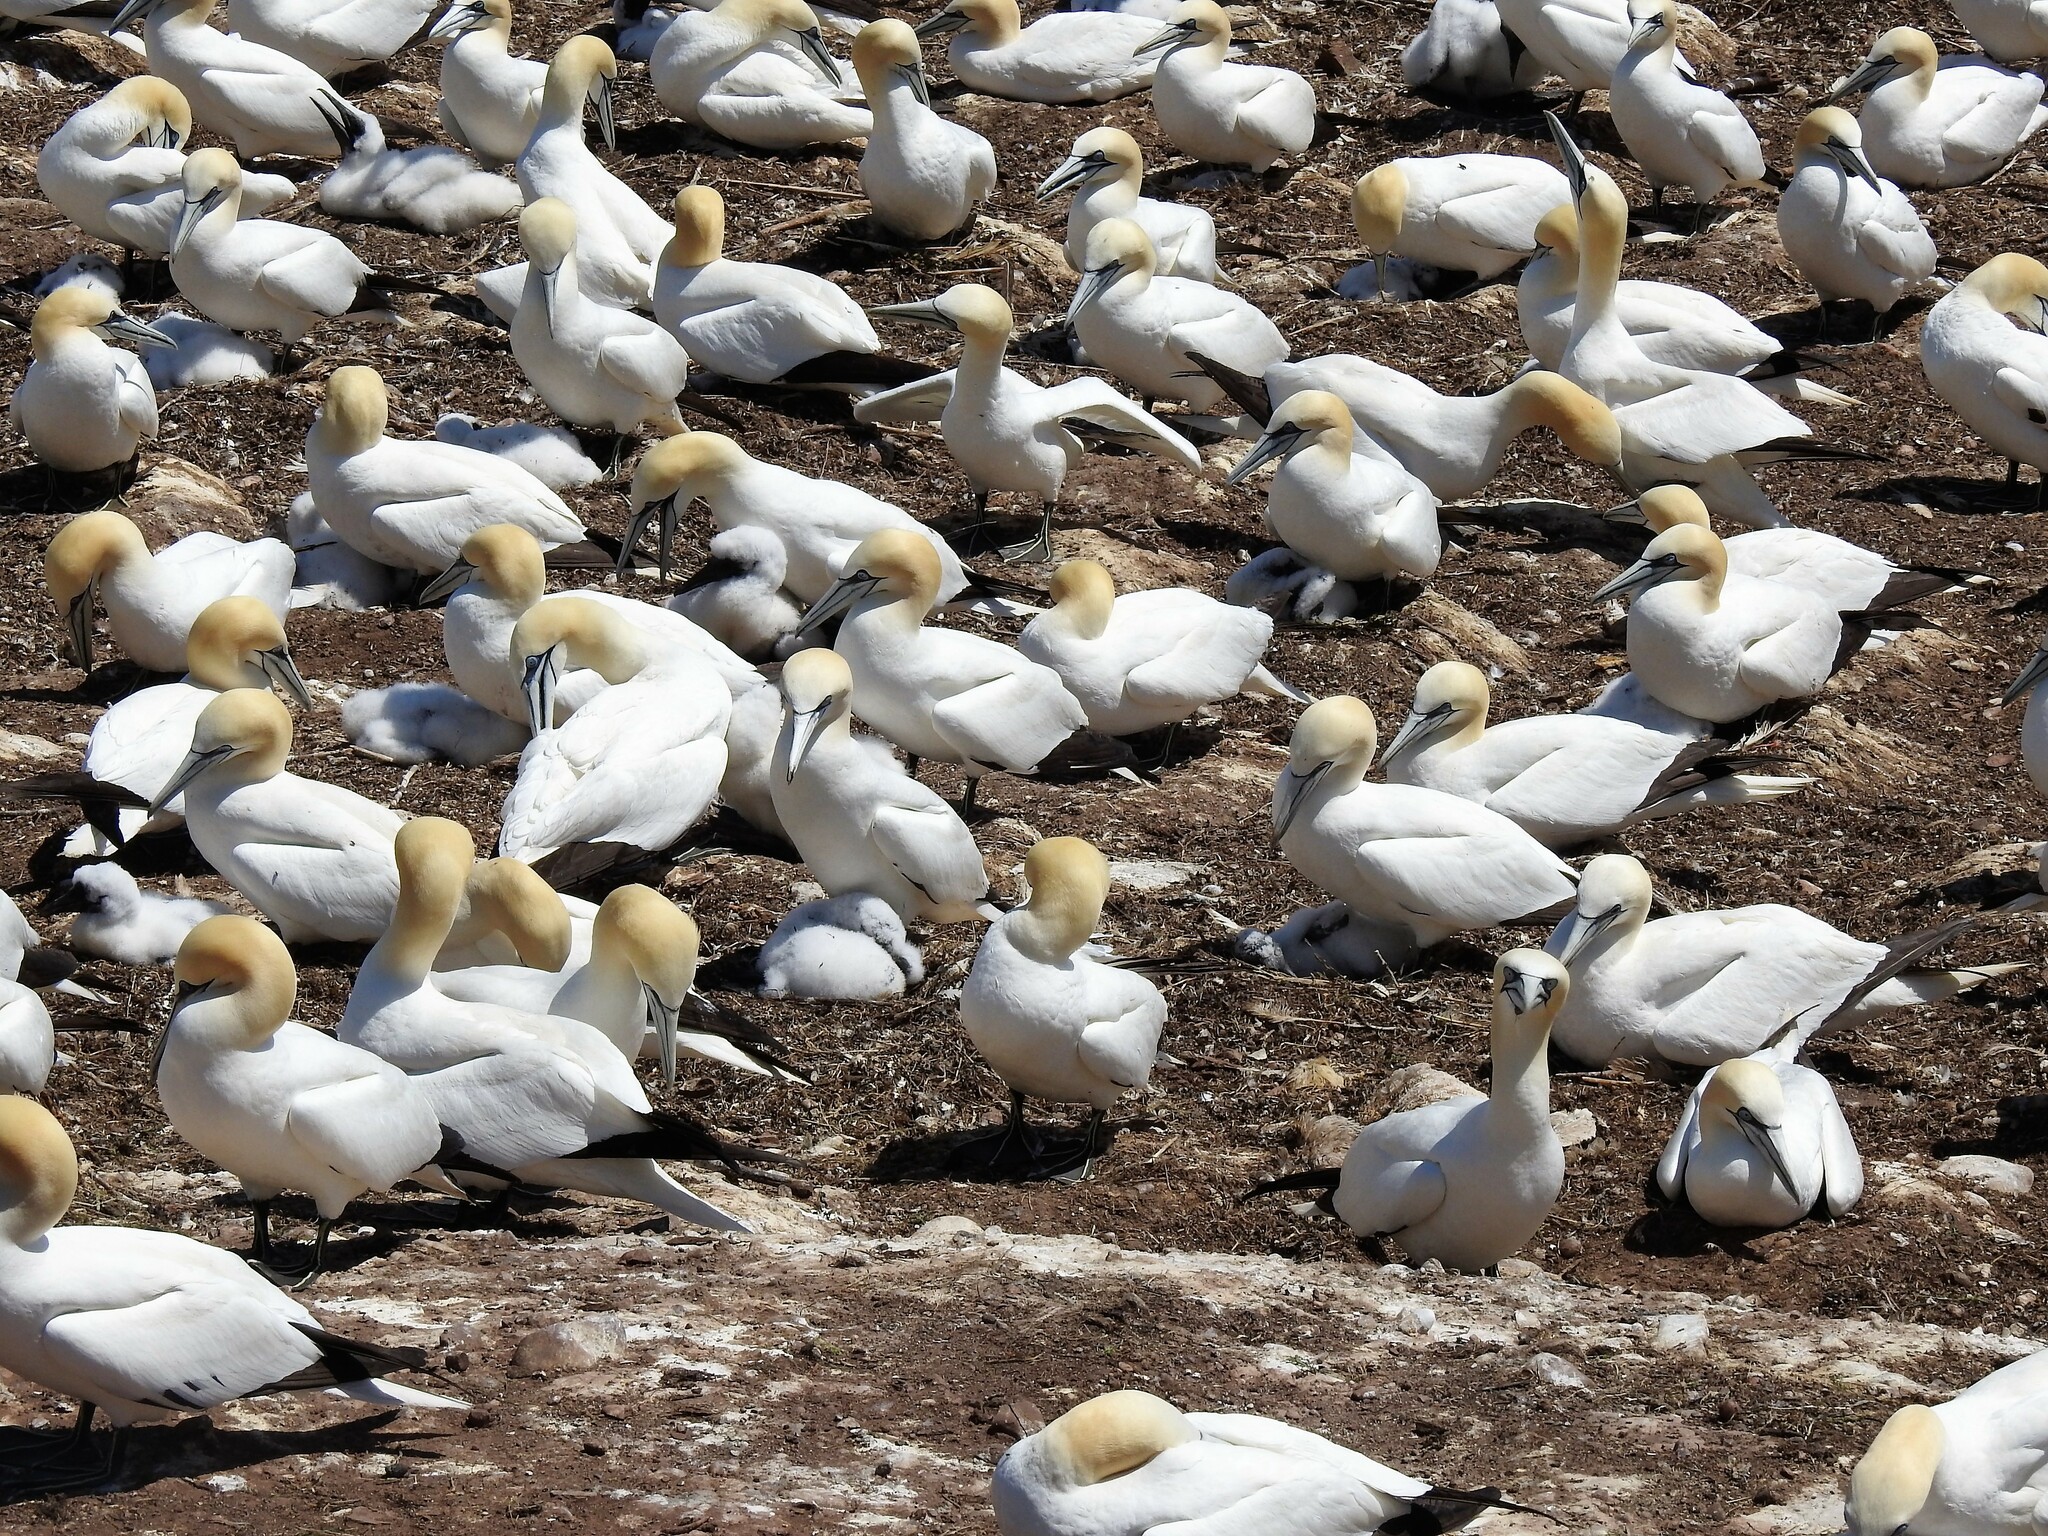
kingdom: Animalia
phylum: Chordata
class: Aves
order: Suliformes
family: Sulidae
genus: Morus
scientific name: Morus bassanus
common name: Northern gannet
